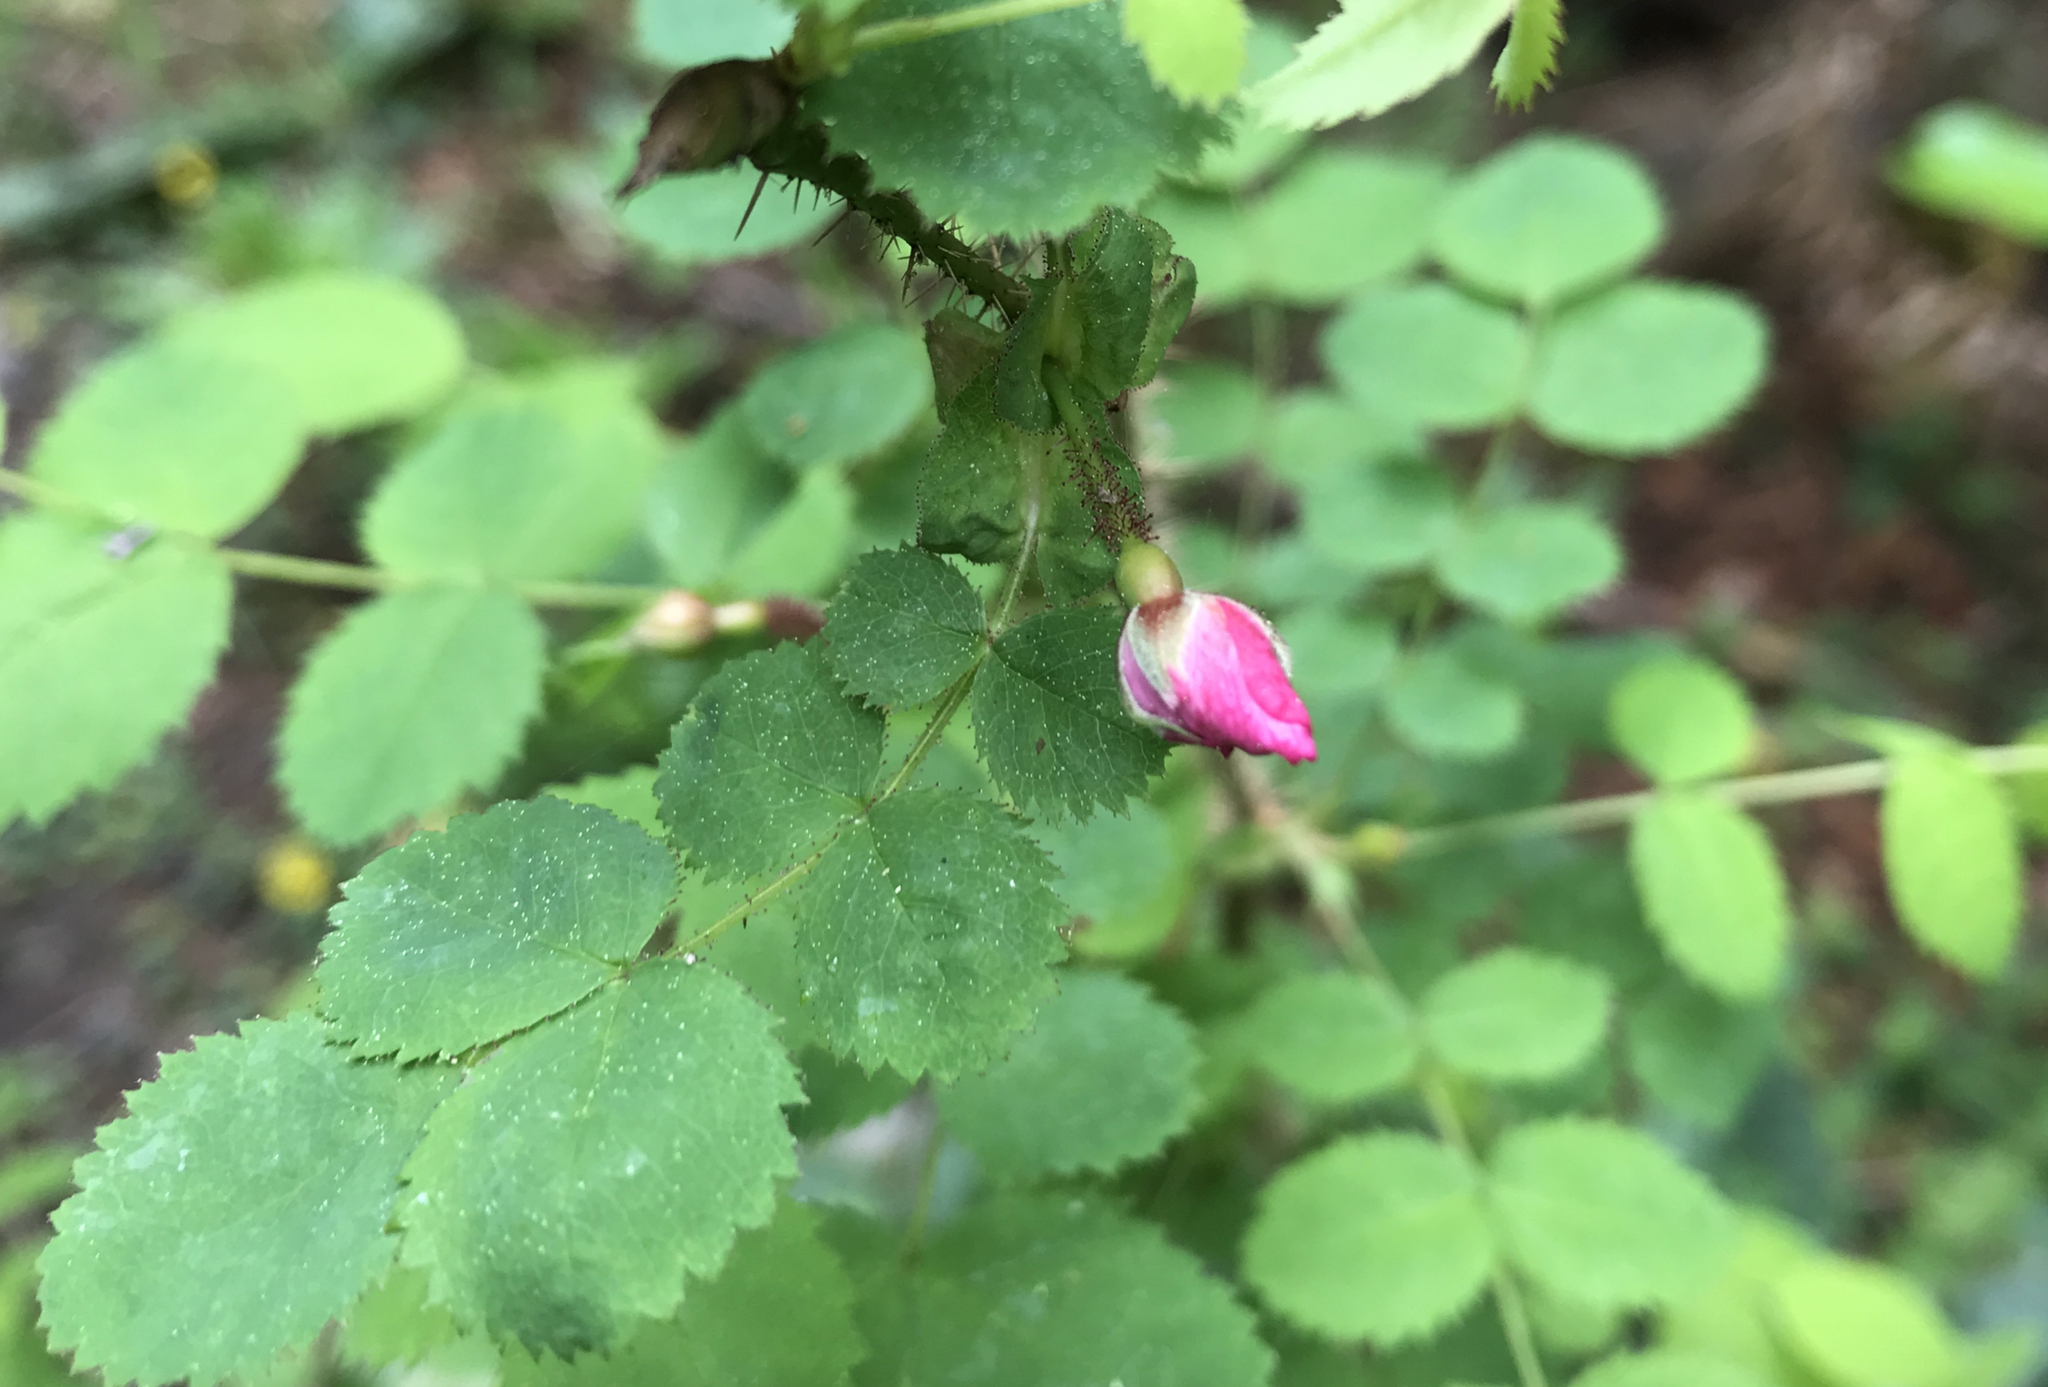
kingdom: Plantae
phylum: Tracheophyta
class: Magnoliopsida
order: Rosales
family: Rosaceae
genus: Rosa
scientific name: Rosa gymnocarpa
